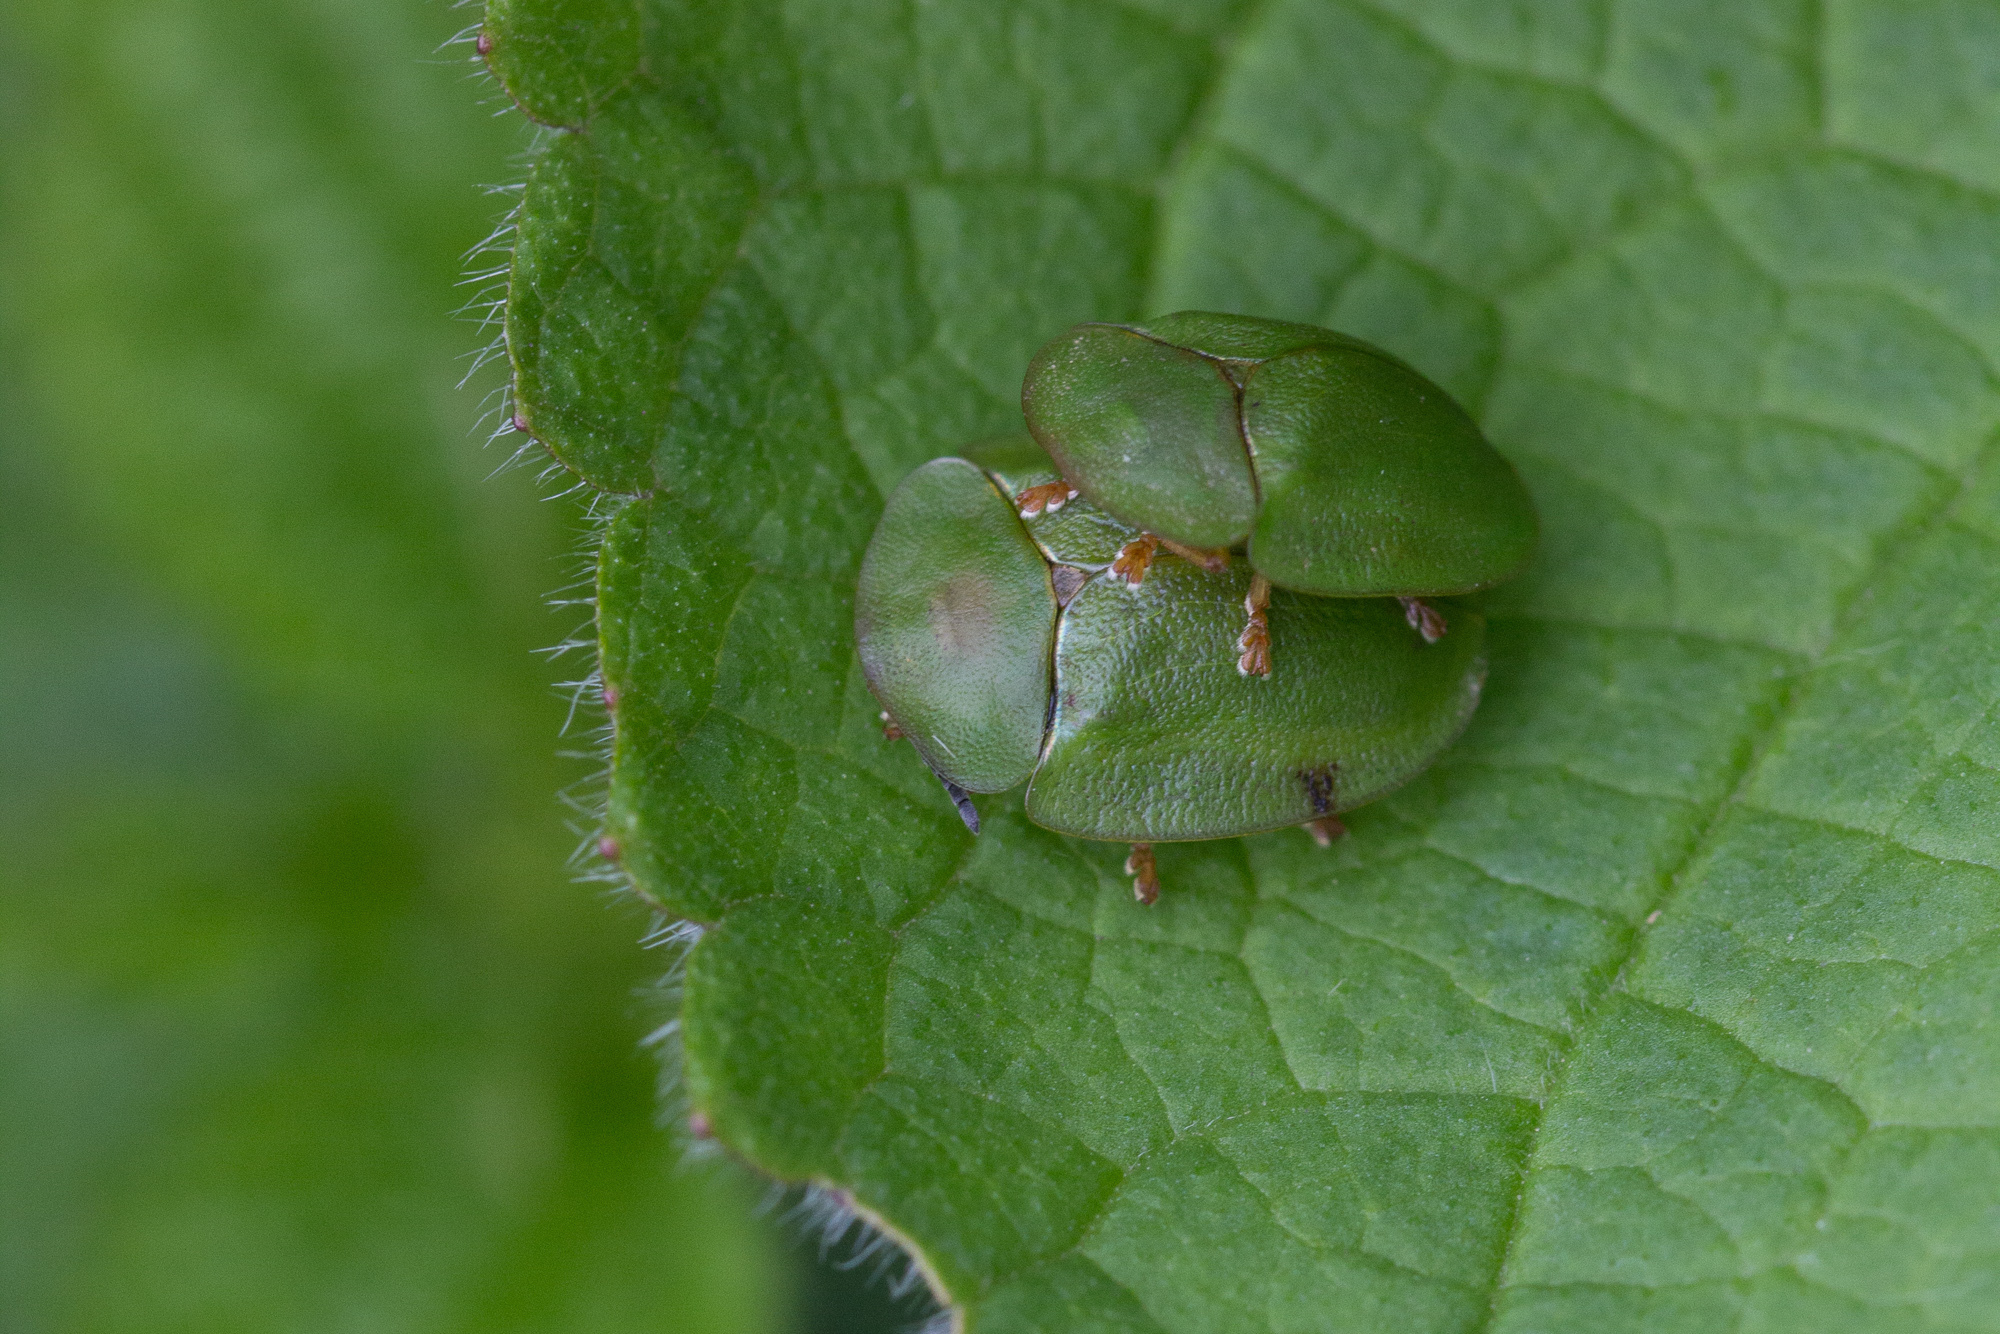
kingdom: Animalia
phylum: Arthropoda
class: Insecta
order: Coleoptera
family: Chrysomelidae
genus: Cassida
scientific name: Cassida viridis
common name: Green tortoise beetle
